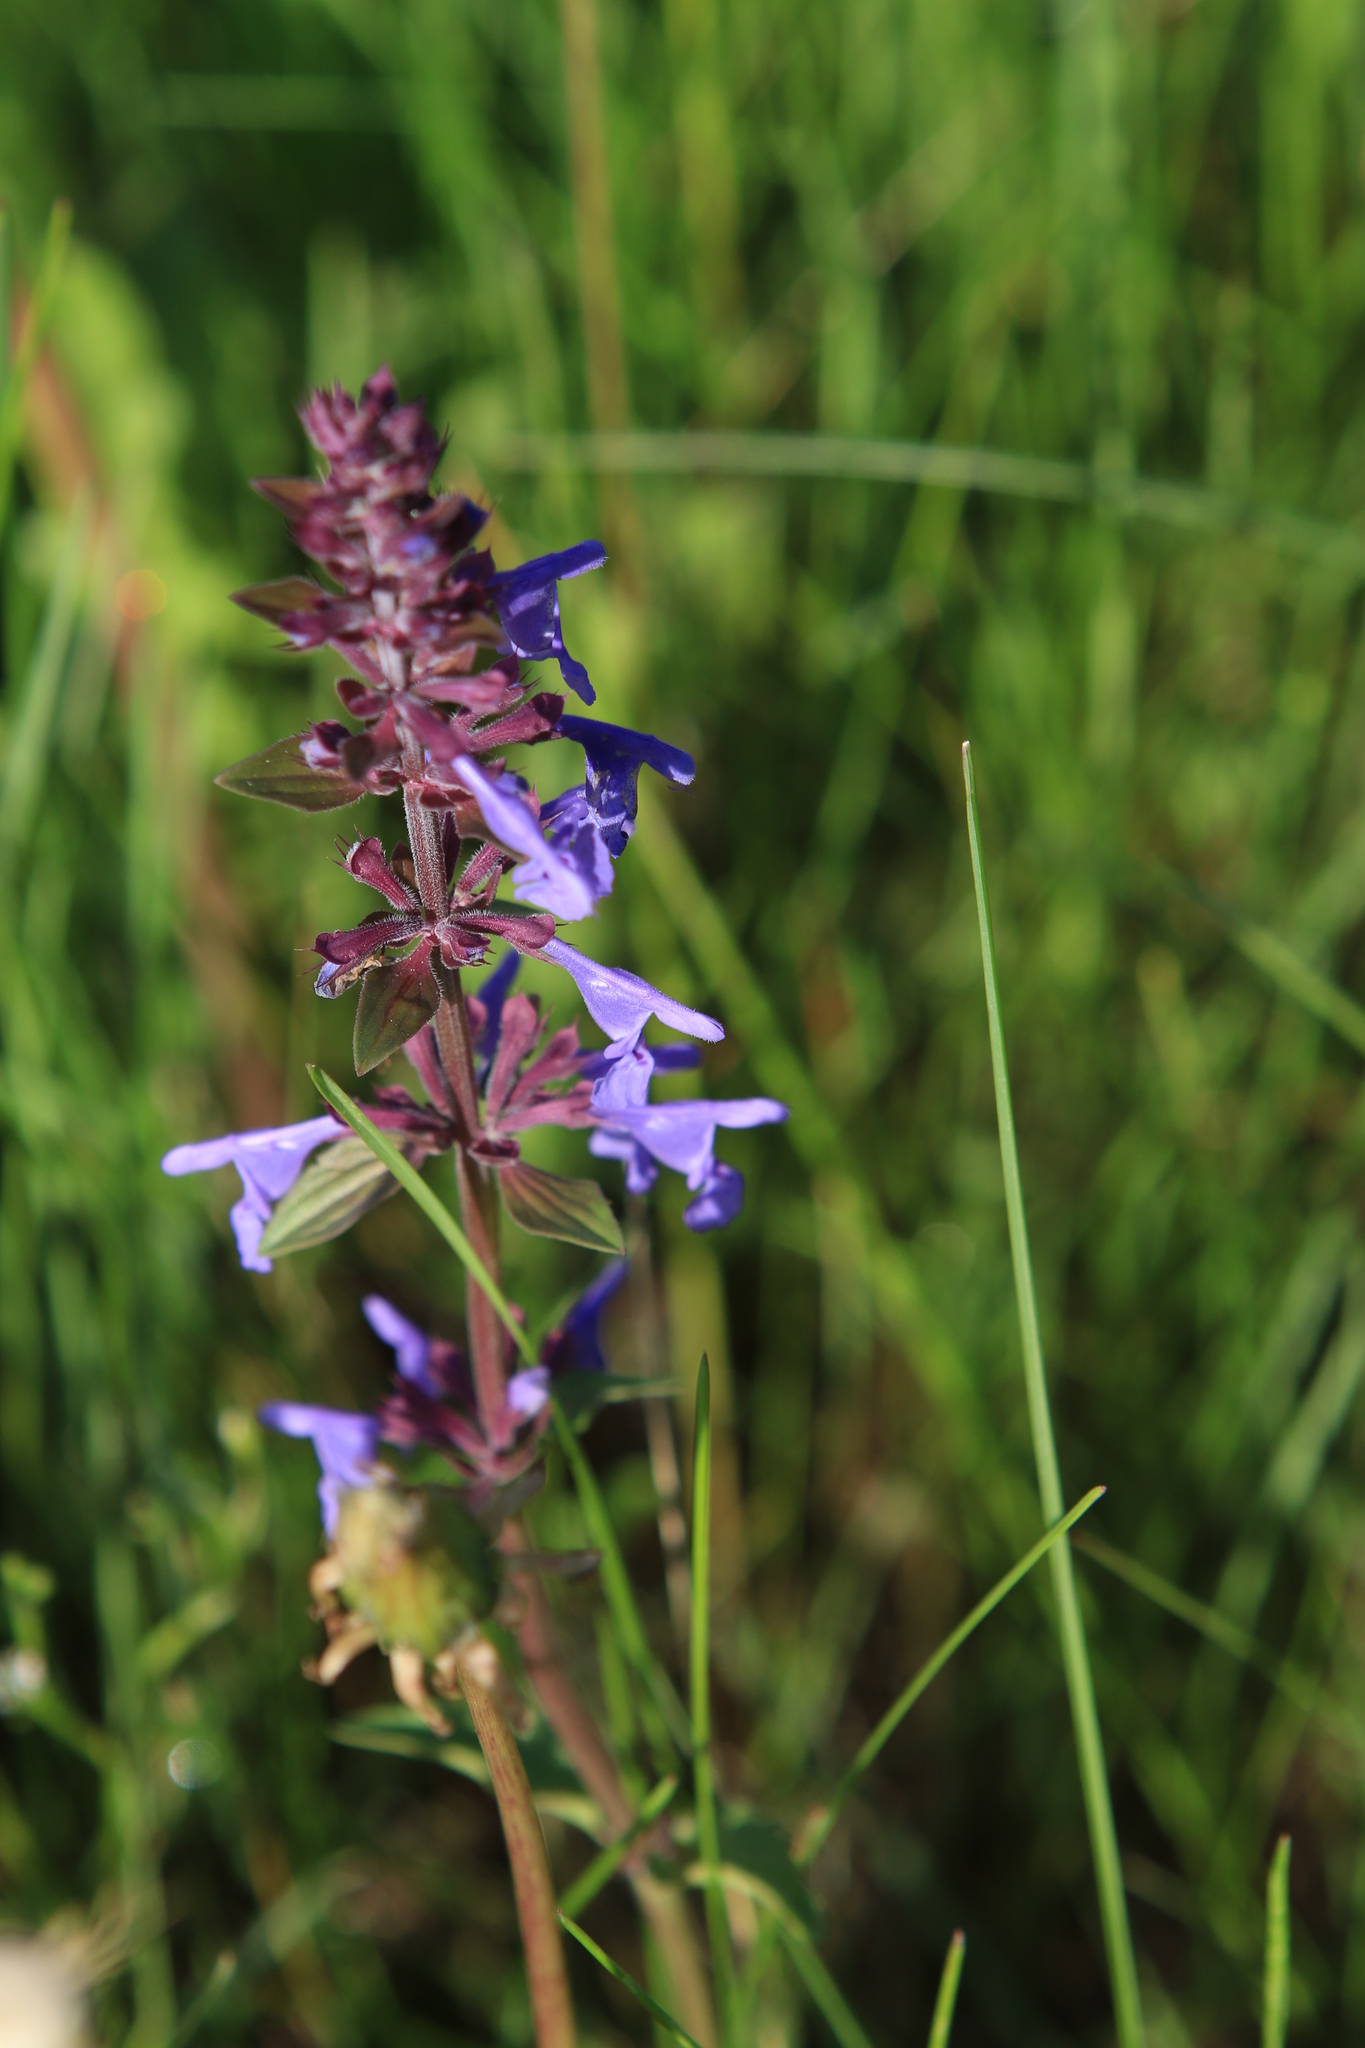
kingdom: Plantae
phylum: Tracheophyta
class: Magnoliopsida
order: Lamiales
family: Lamiaceae
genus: Dracocephalum
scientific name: Dracocephalum nutans
